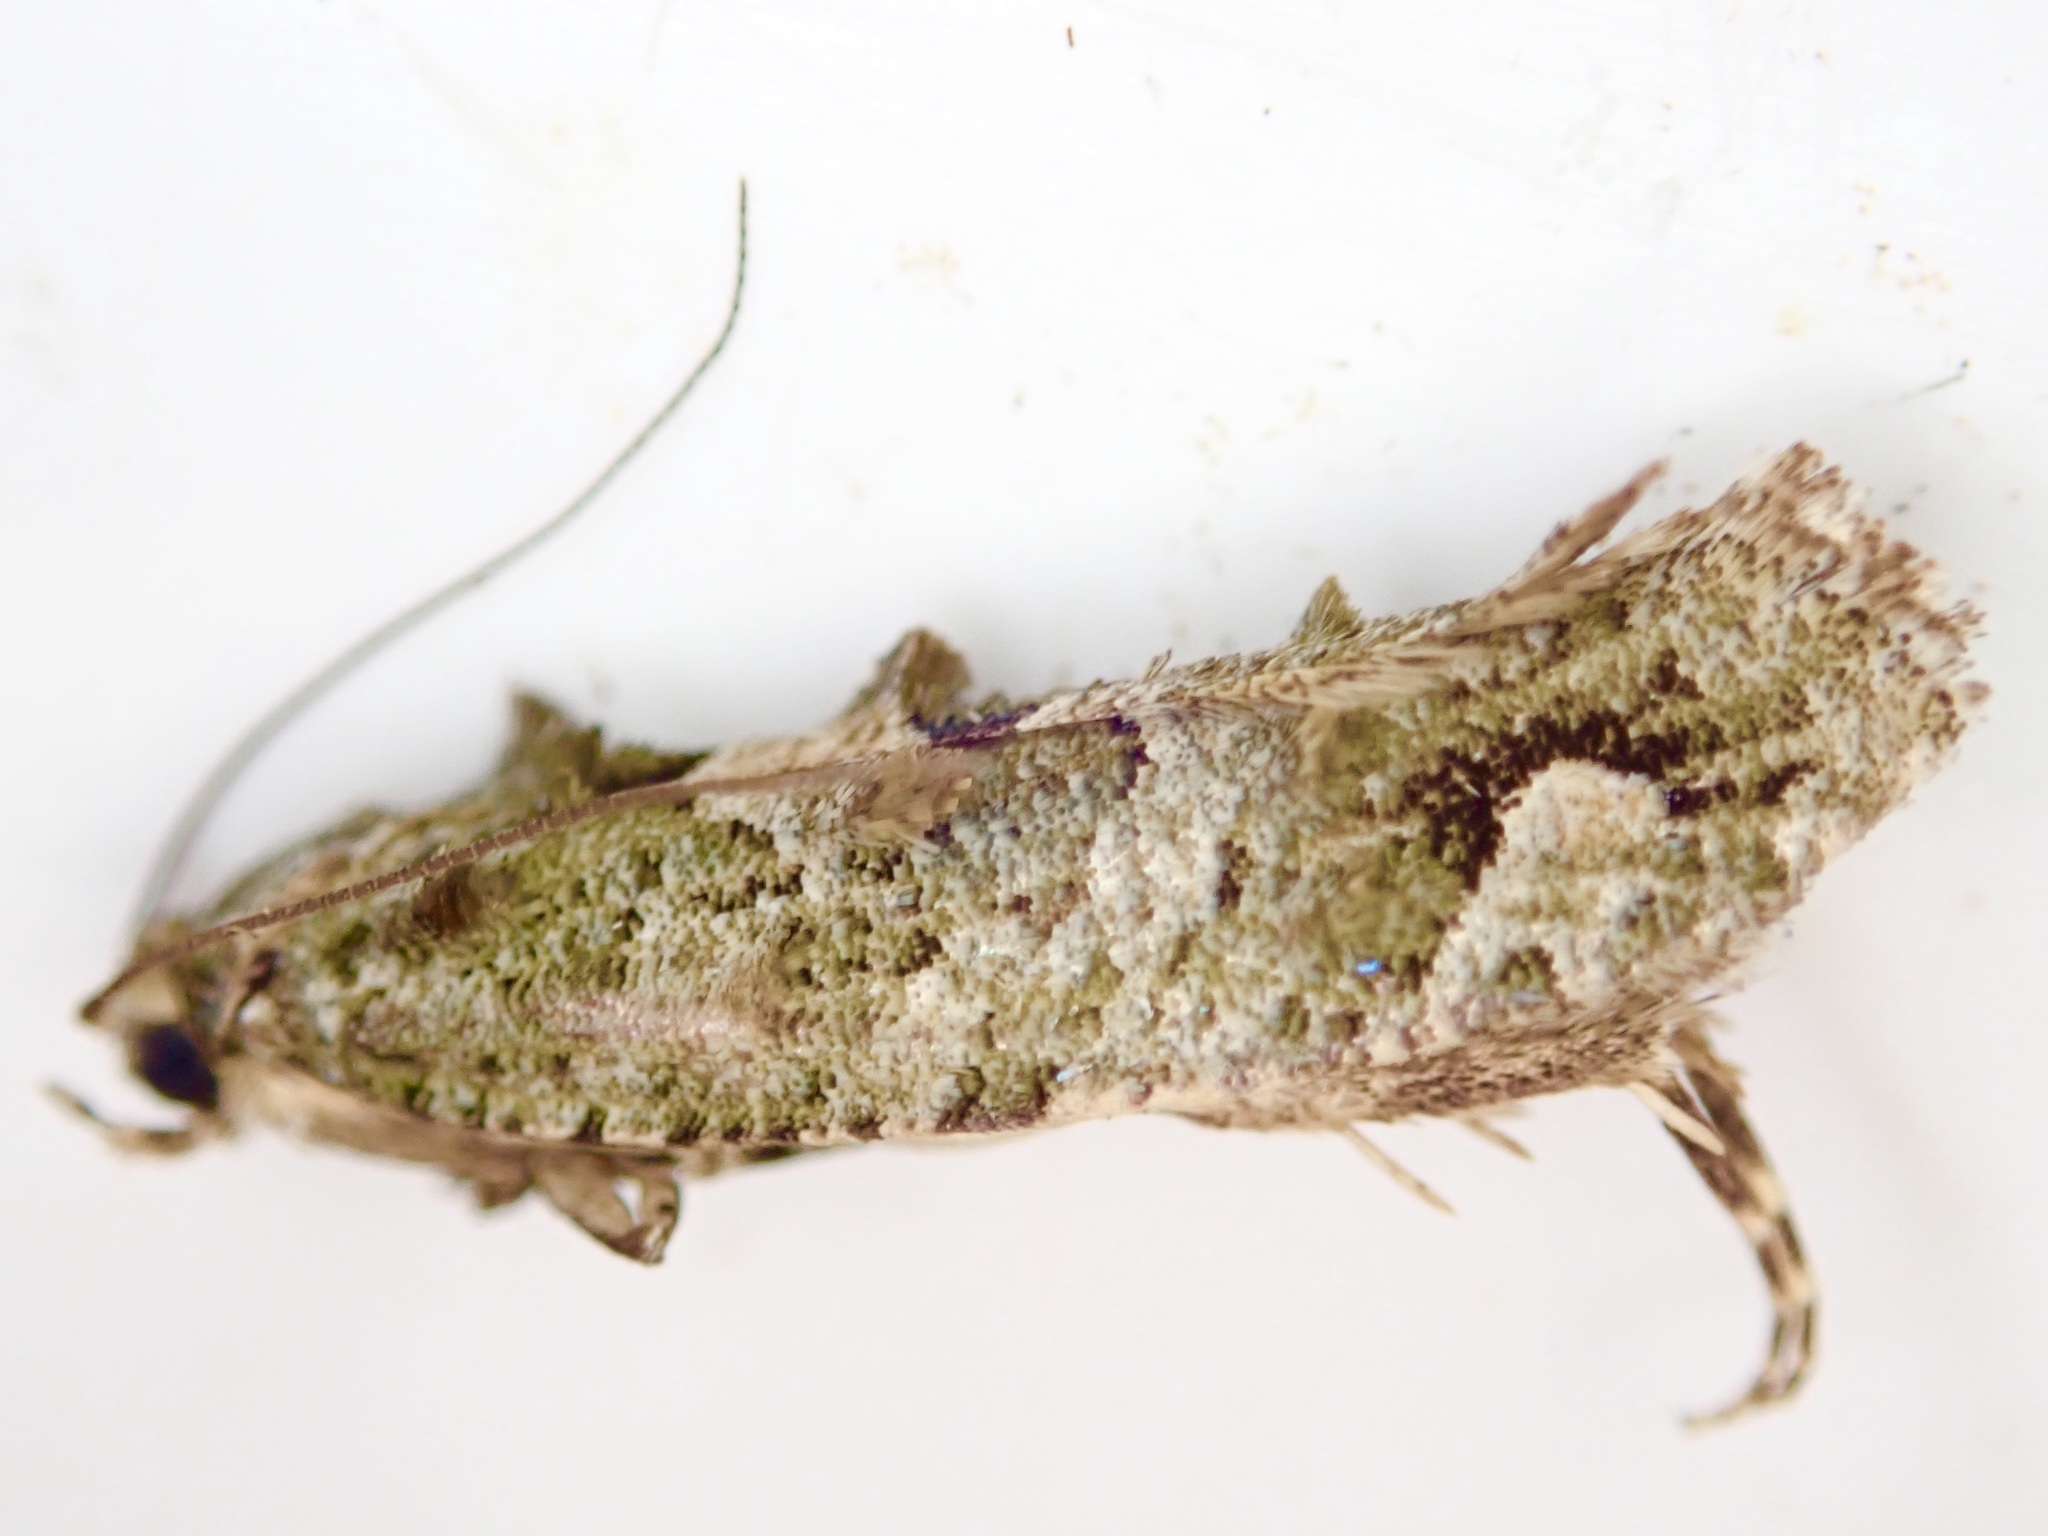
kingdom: Animalia
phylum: Arthropoda
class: Insecta
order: Lepidoptera
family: Tineidae
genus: Lysiphragma
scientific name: Lysiphragma howesii
